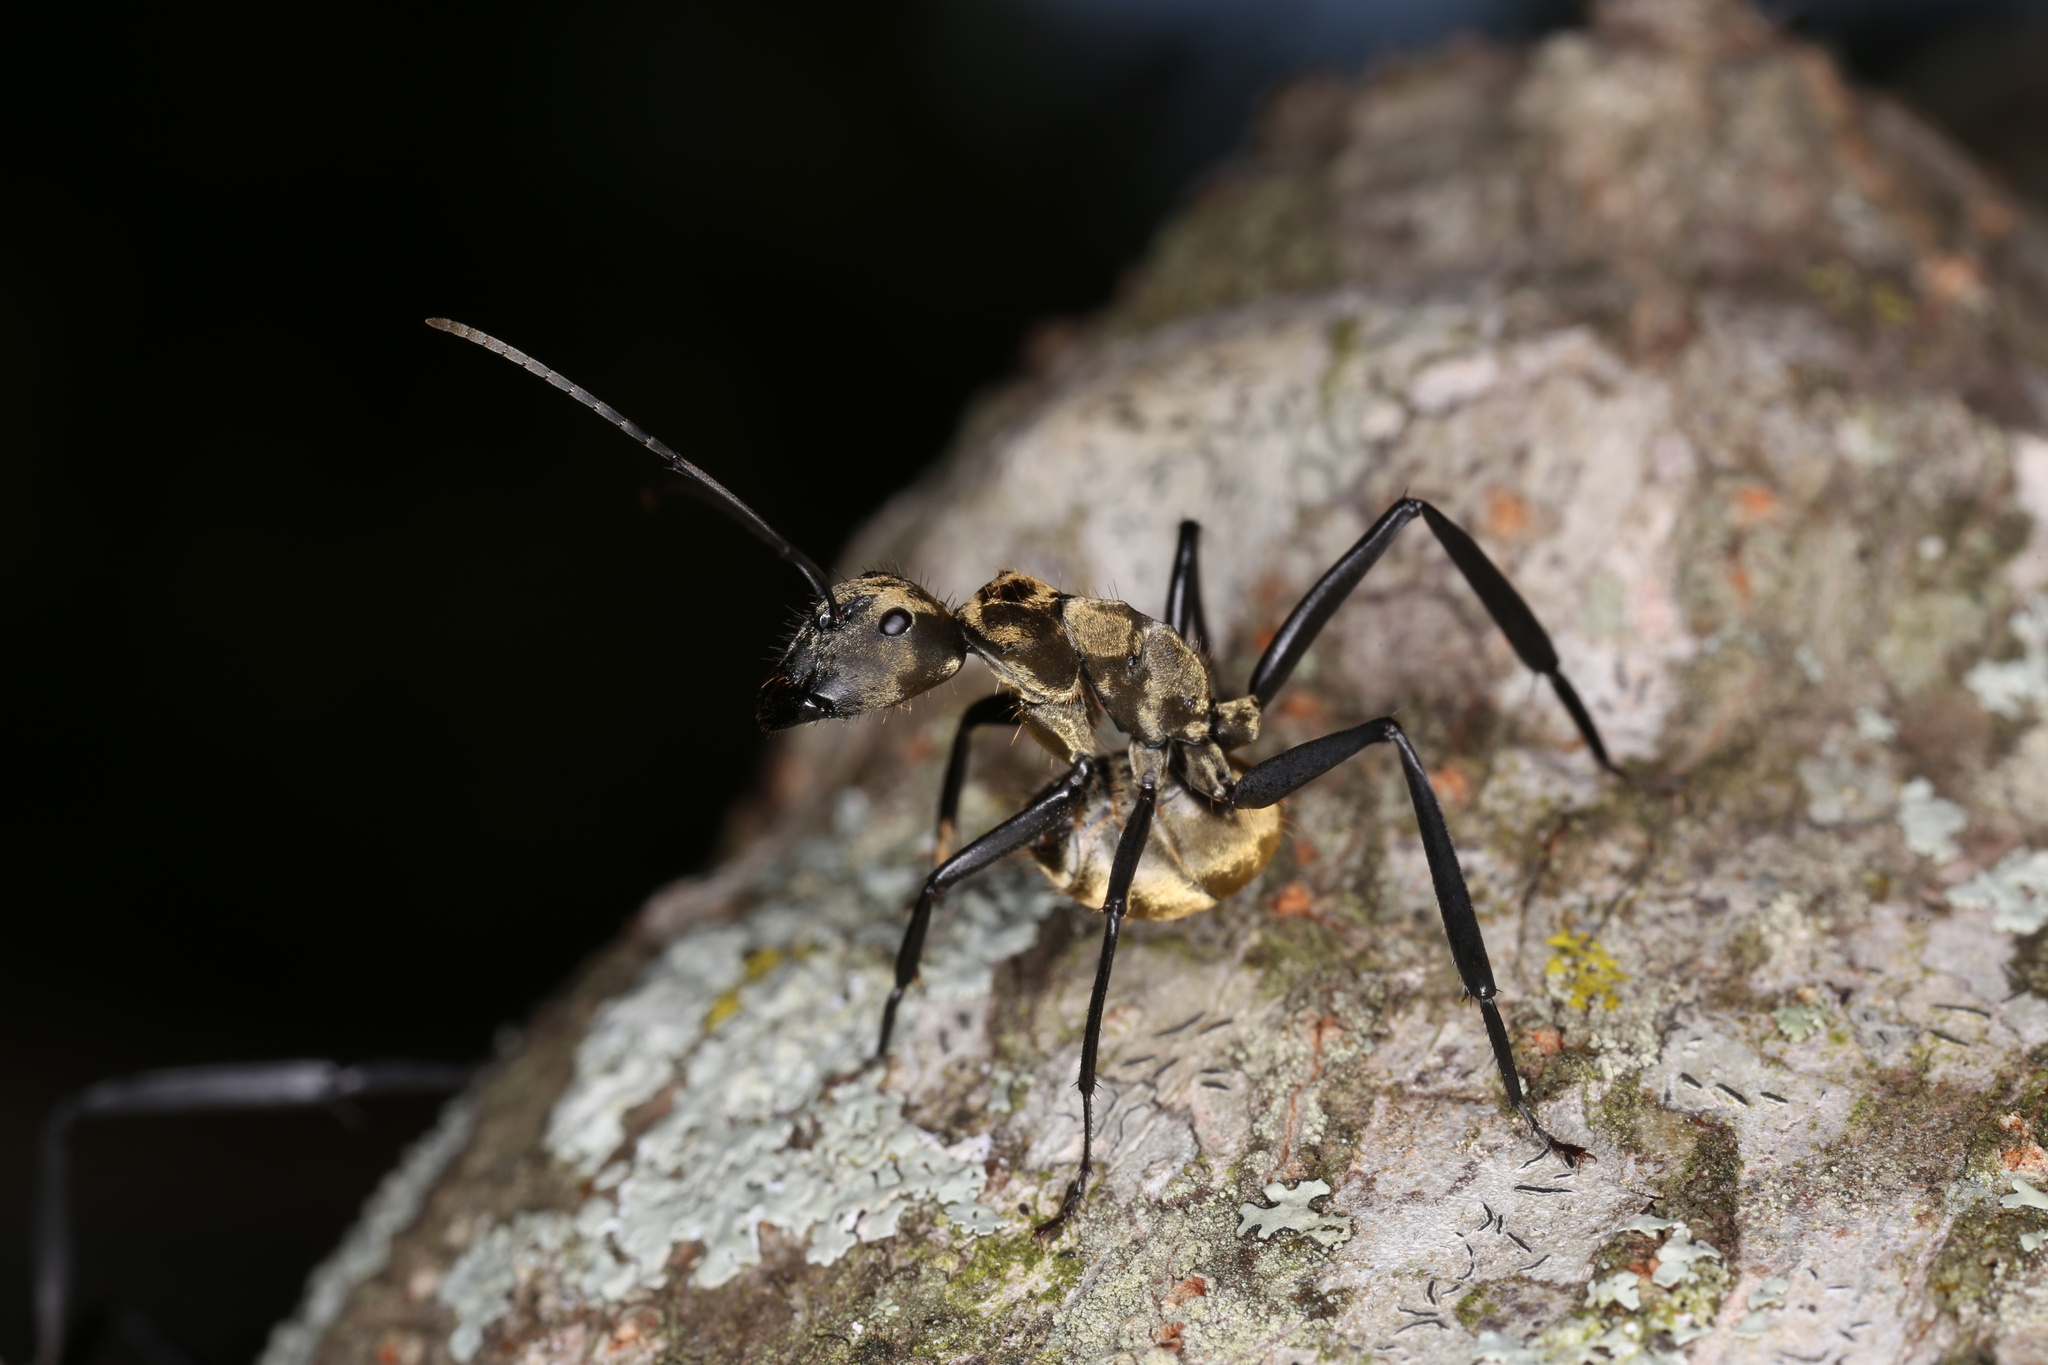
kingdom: Animalia
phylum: Arthropoda
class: Insecta
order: Hymenoptera
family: Formicidae
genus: Camponotus
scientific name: Camponotus sericeiventris
